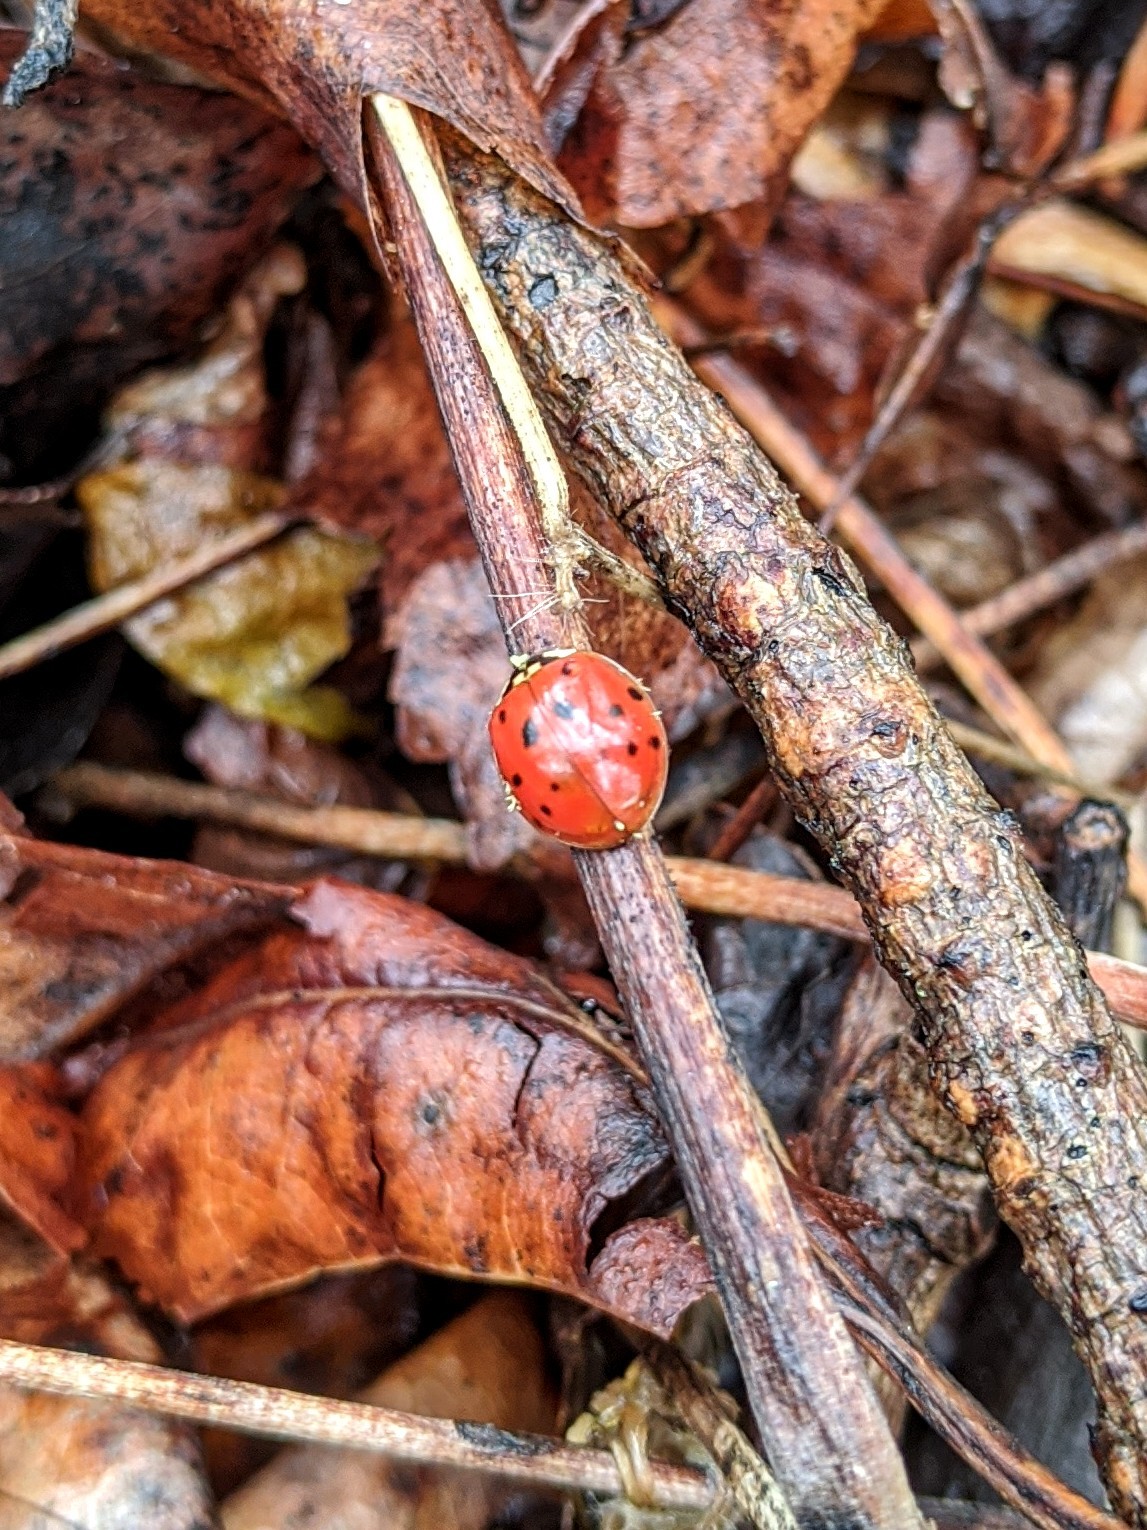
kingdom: Animalia
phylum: Arthropoda
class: Insecta
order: Coleoptera
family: Coccinellidae
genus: Harmonia
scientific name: Harmonia axyridis
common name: Harlequin ladybird
